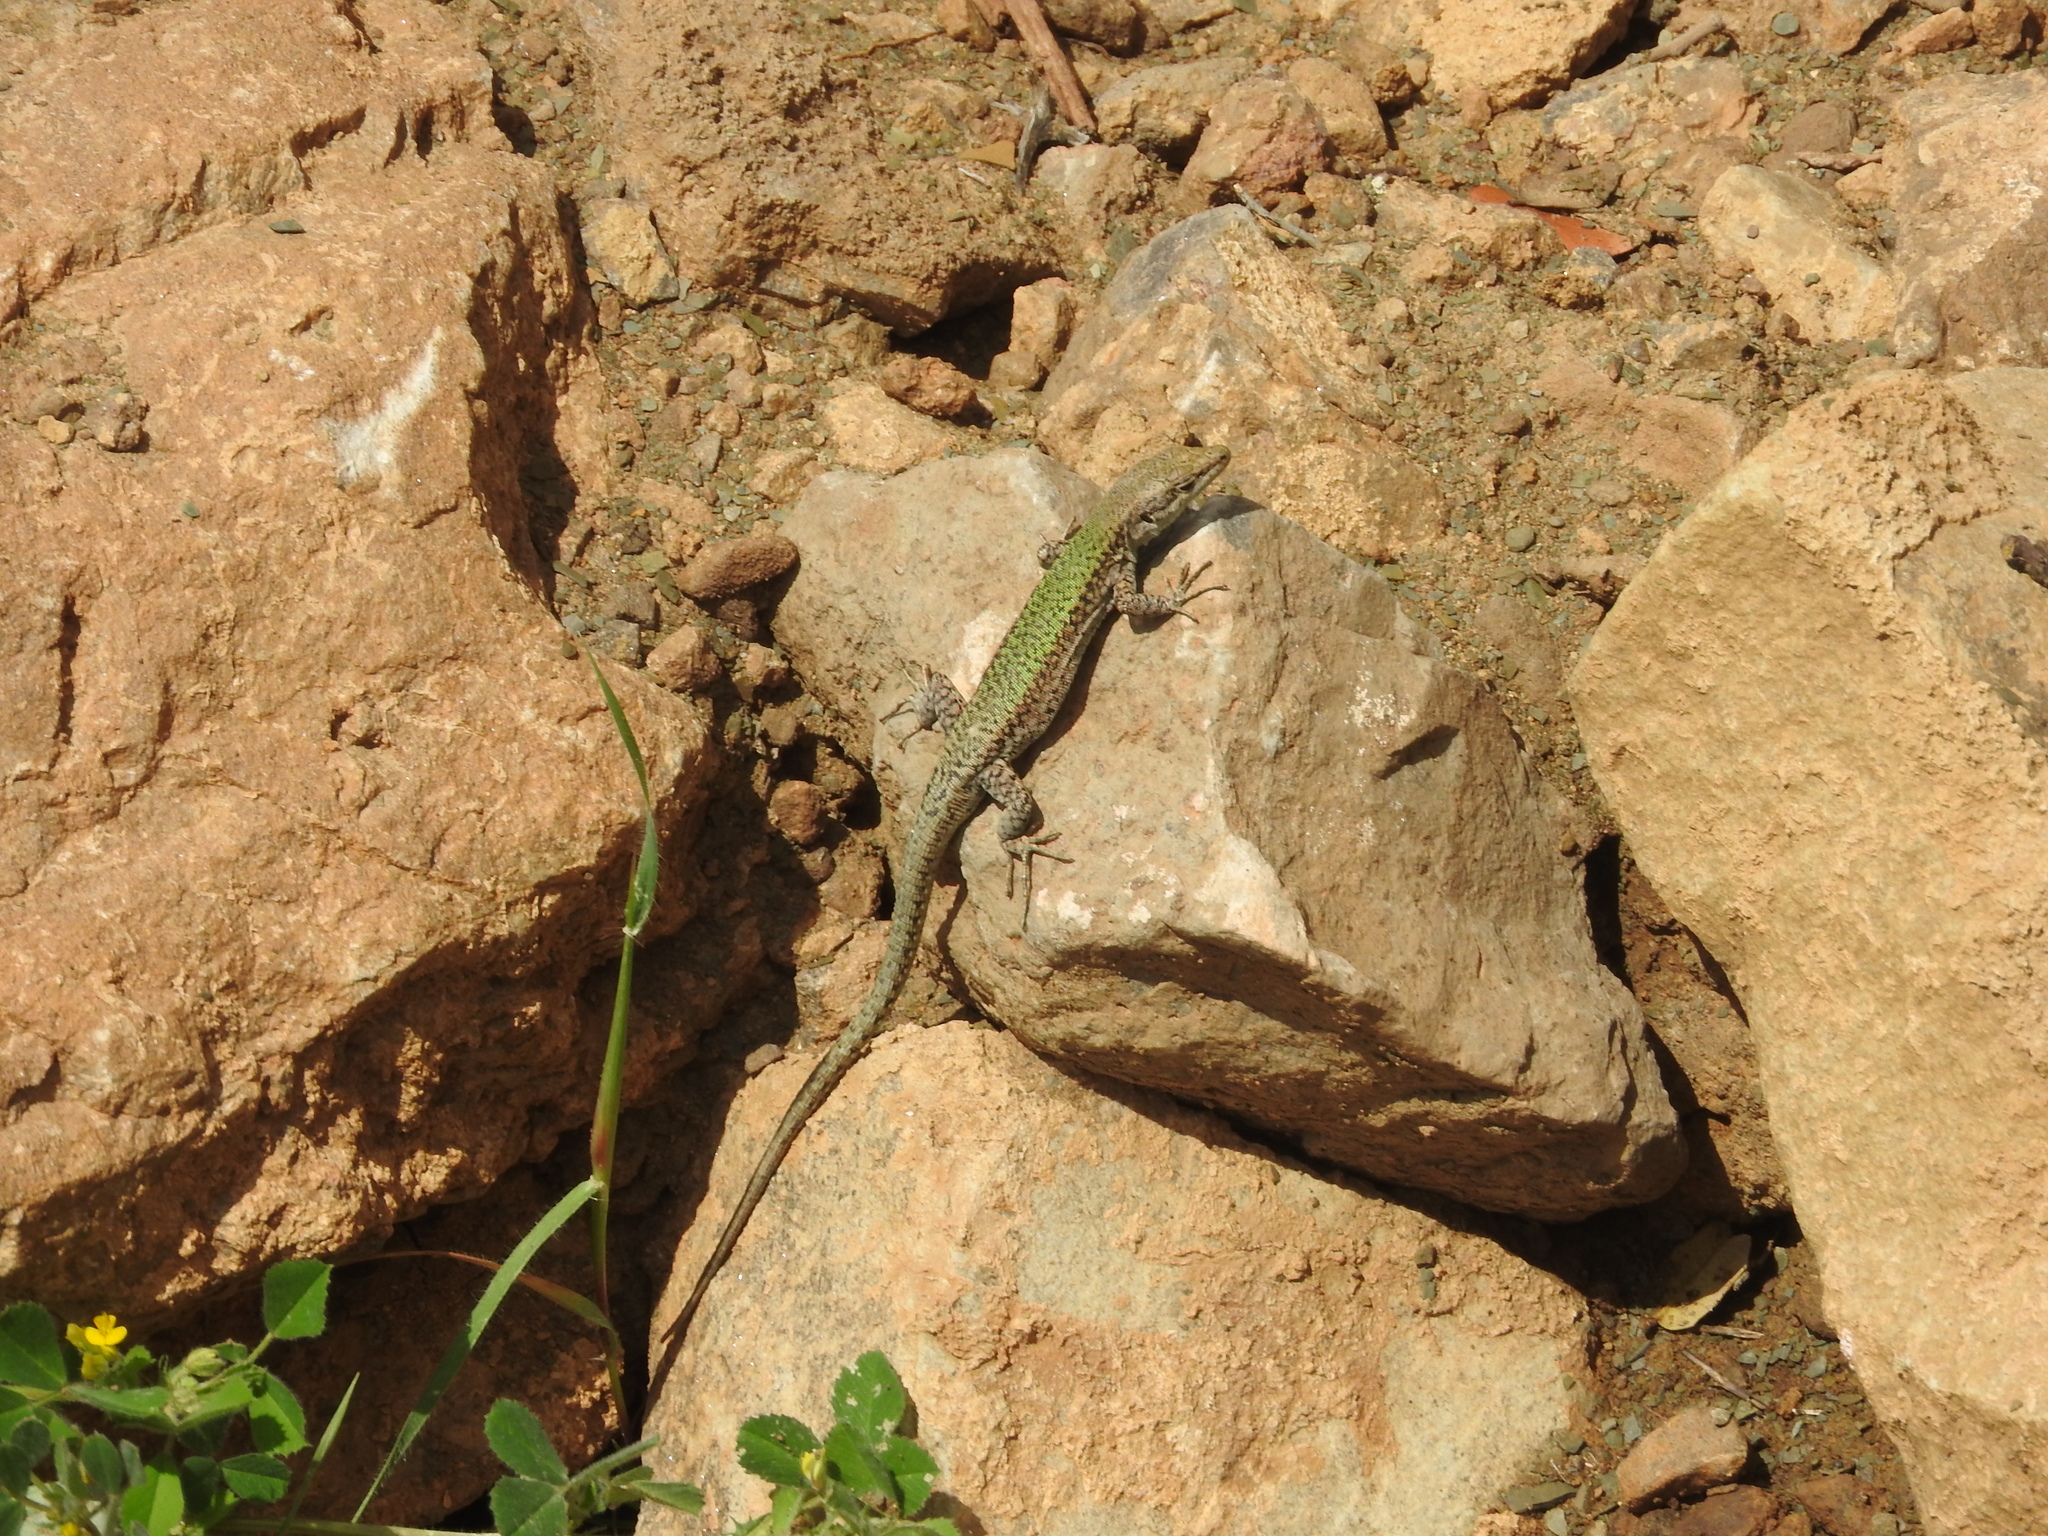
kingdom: Animalia
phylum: Chordata
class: Squamata
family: Lacertidae
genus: Podarcis
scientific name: Podarcis vaucheri
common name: Vaucher's wall lizard
